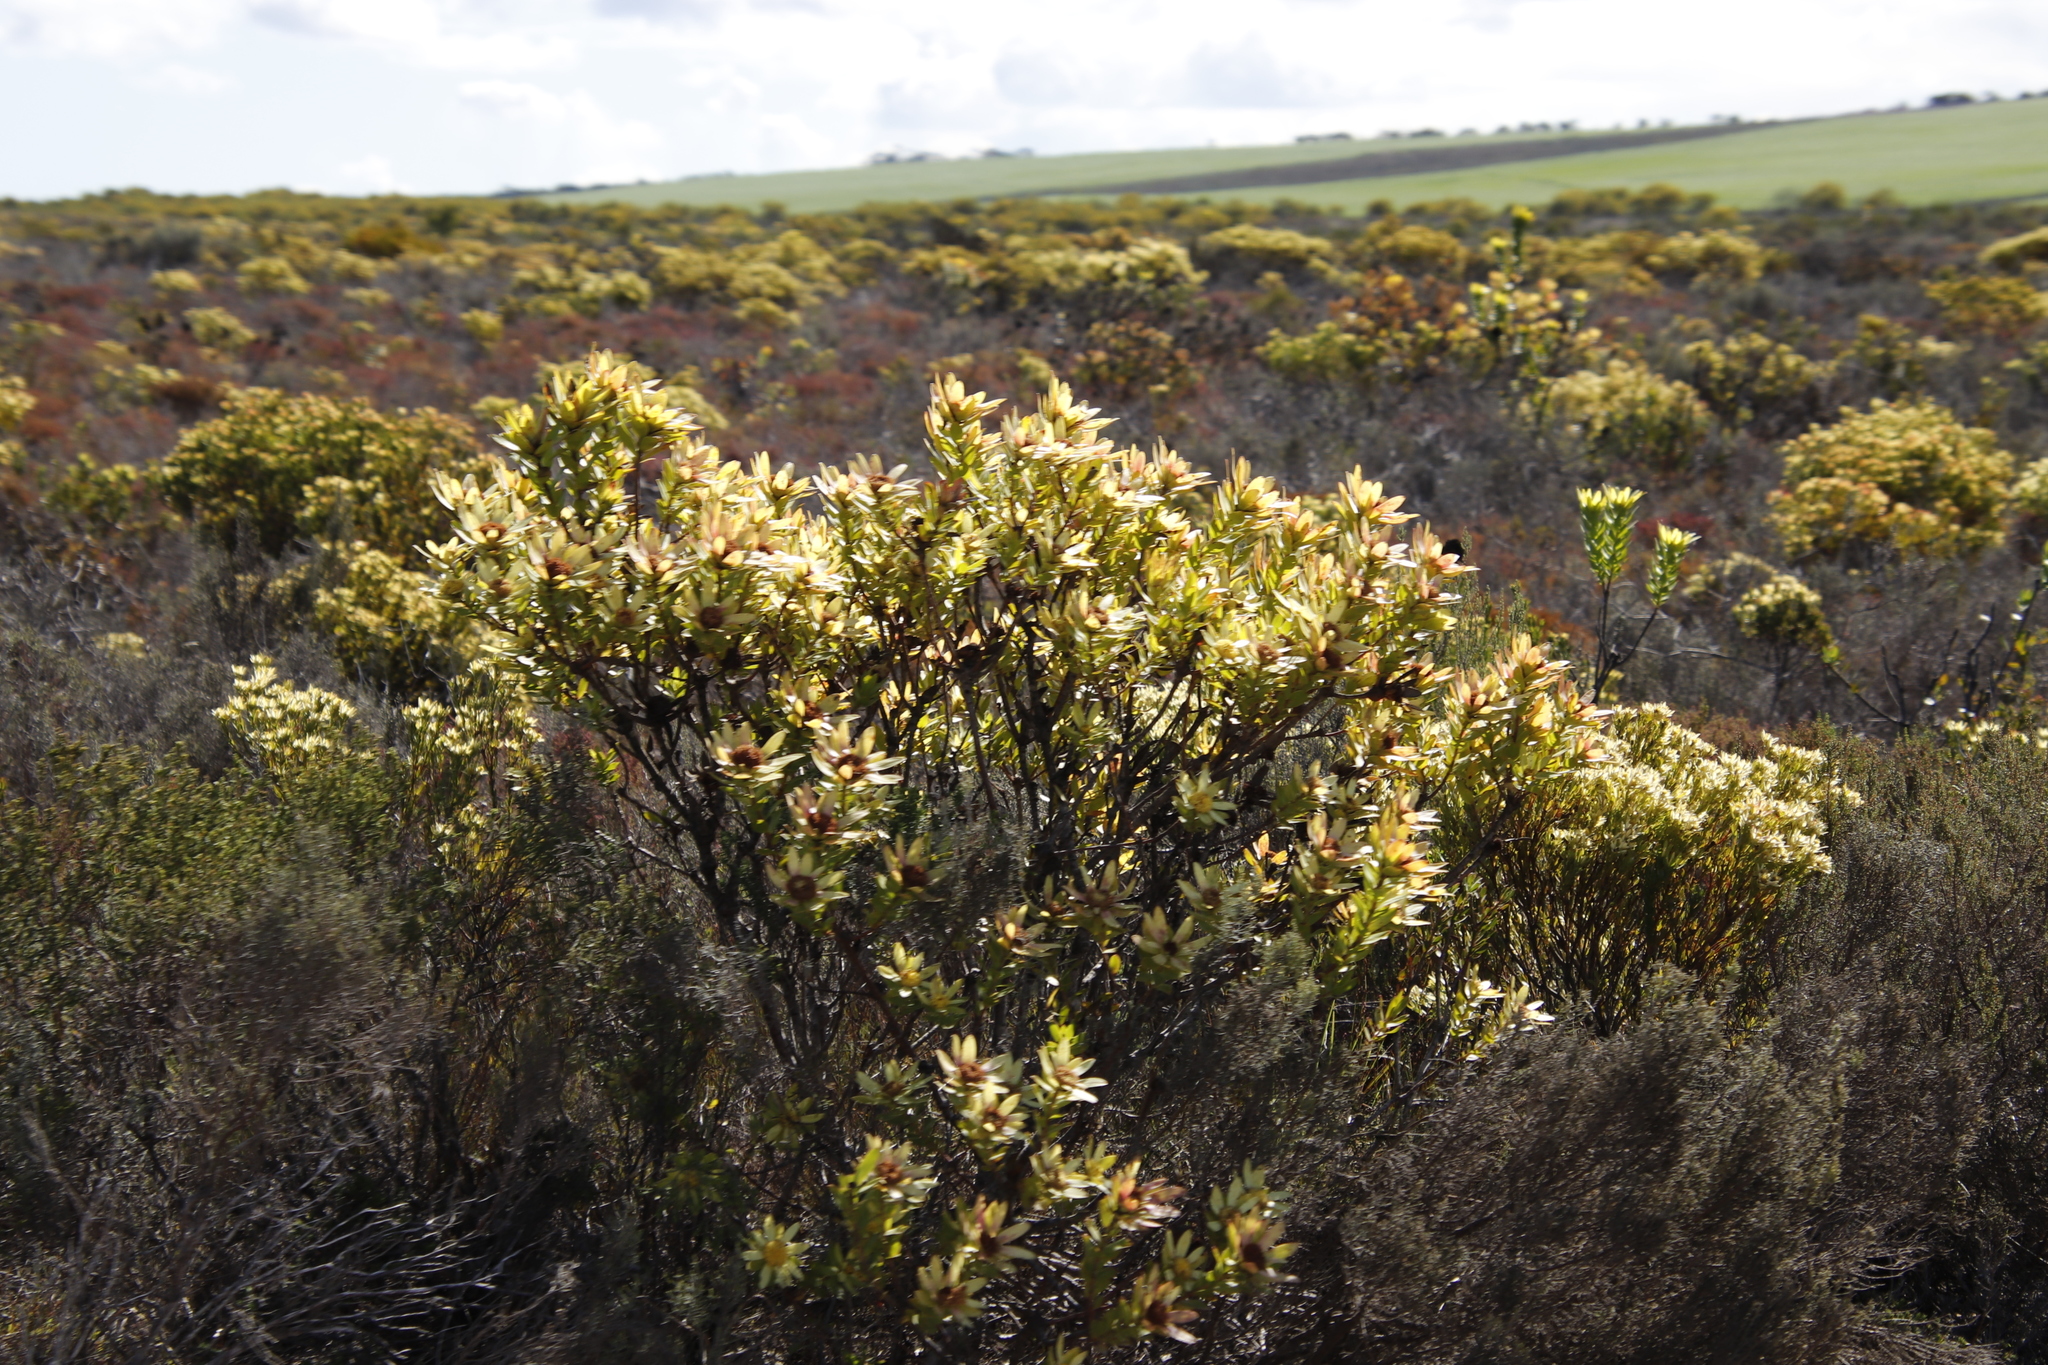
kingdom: Plantae
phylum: Tracheophyta
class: Magnoliopsida
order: Proteales
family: Proteaceae
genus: Leucadendron
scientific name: Leucadendron elimense
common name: Elim conebush
